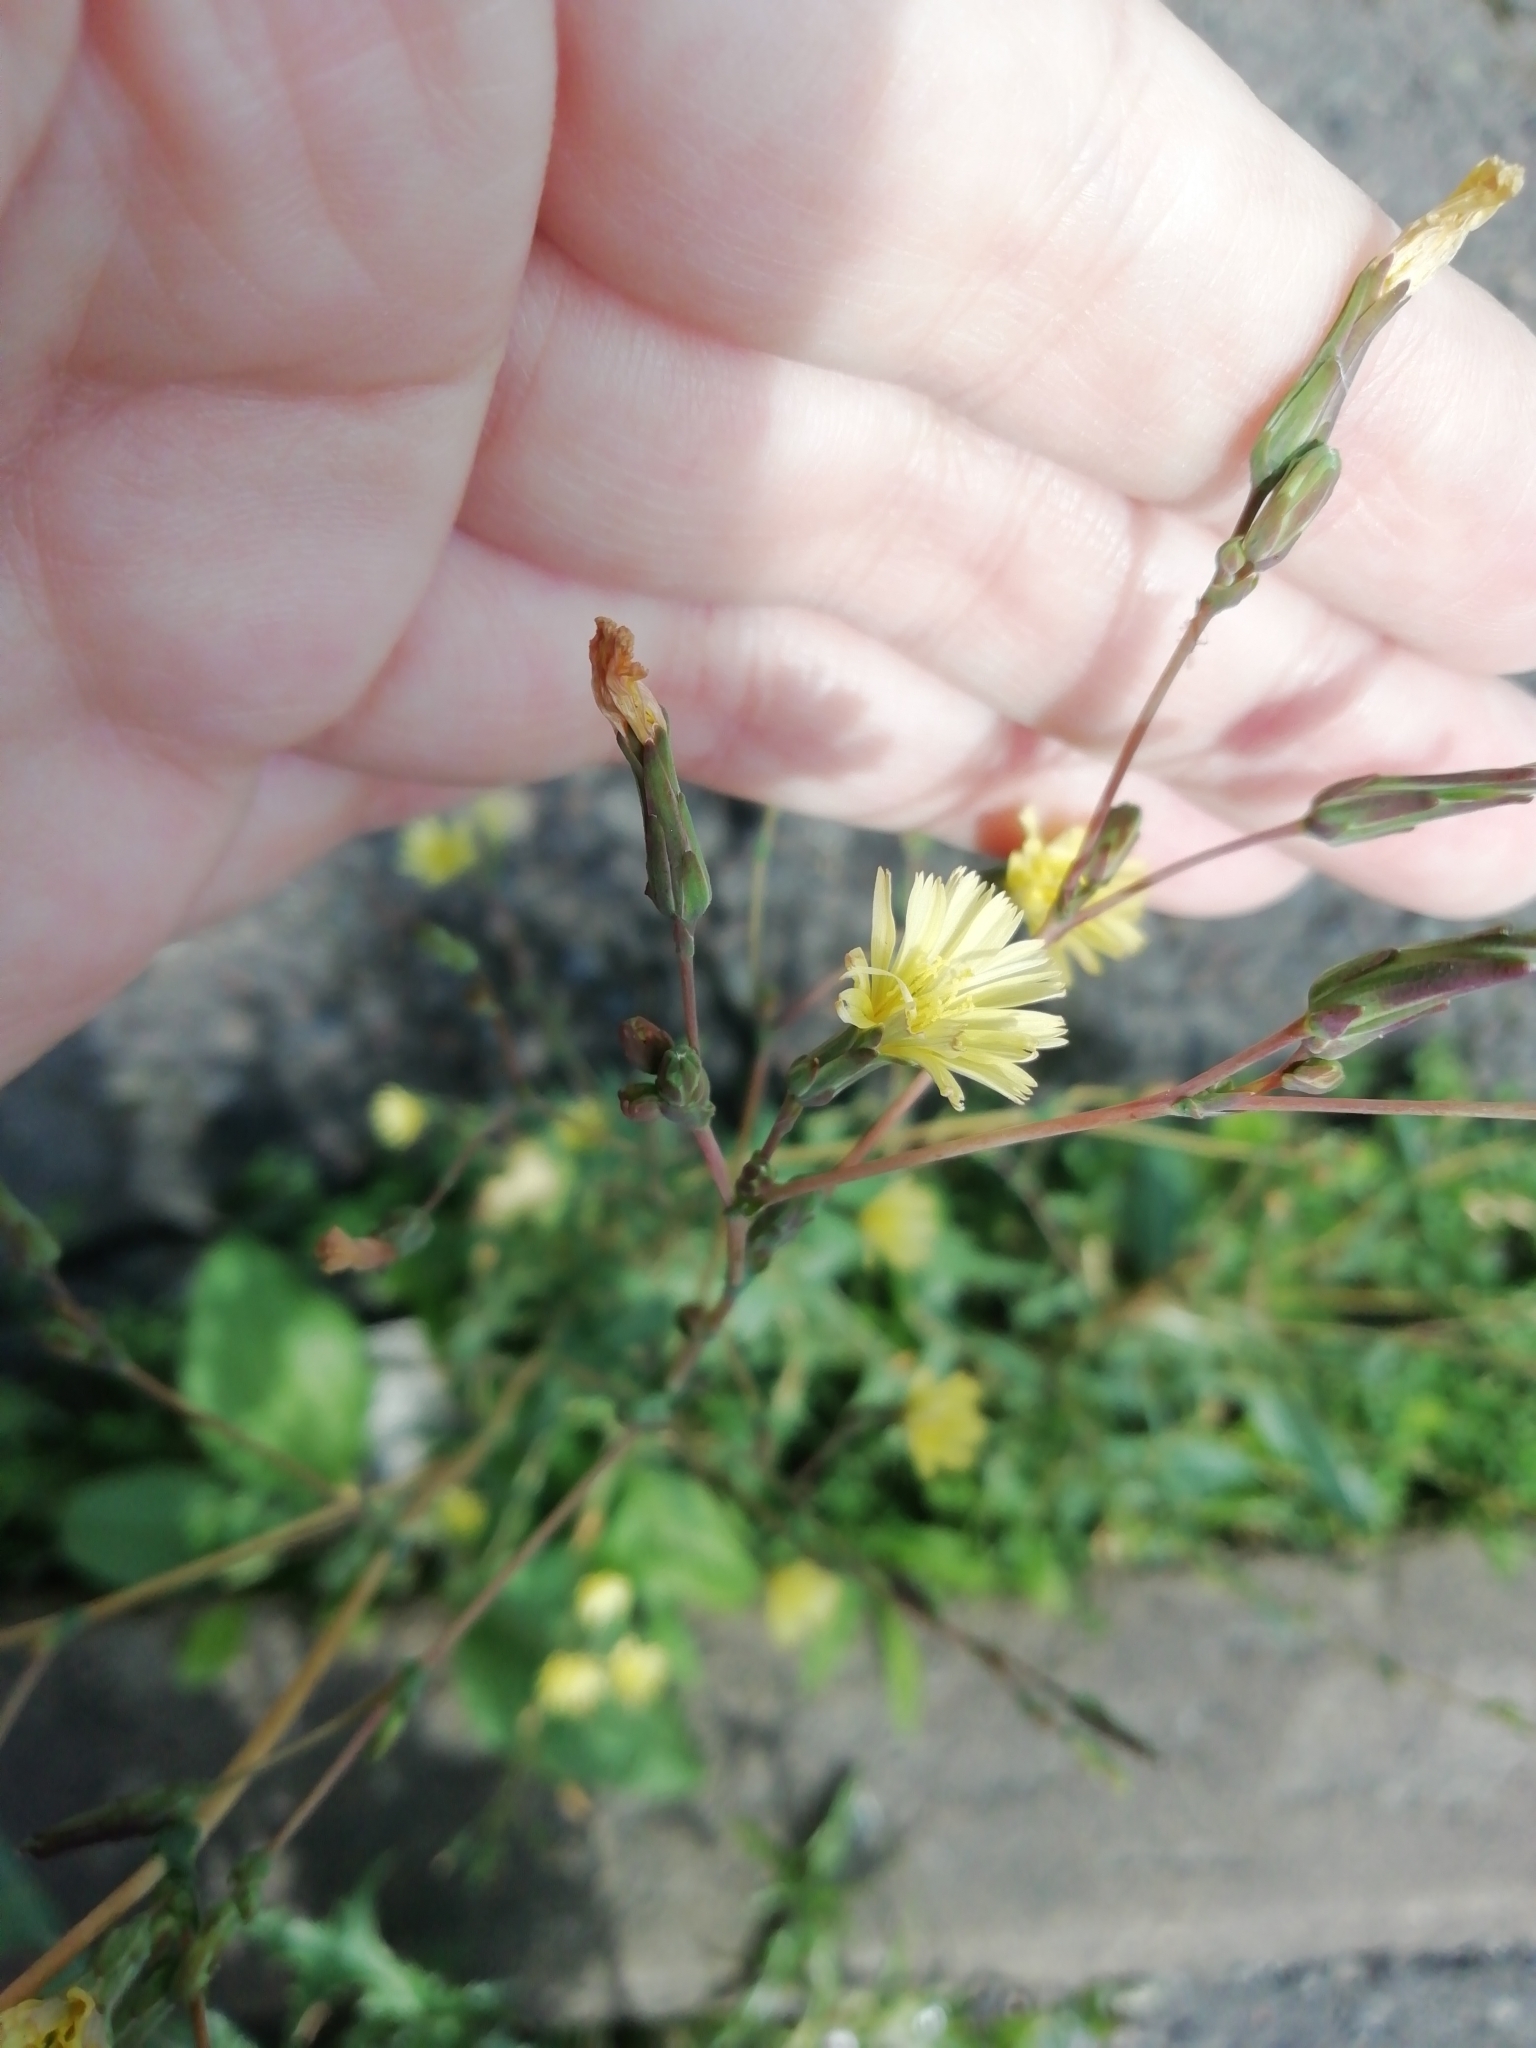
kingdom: Plantae
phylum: Tracheophyta
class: Magnoliopsida
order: Asterales
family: Asteraceae
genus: Lactuca
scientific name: Lactuca serriola
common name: Prickly lettuce
